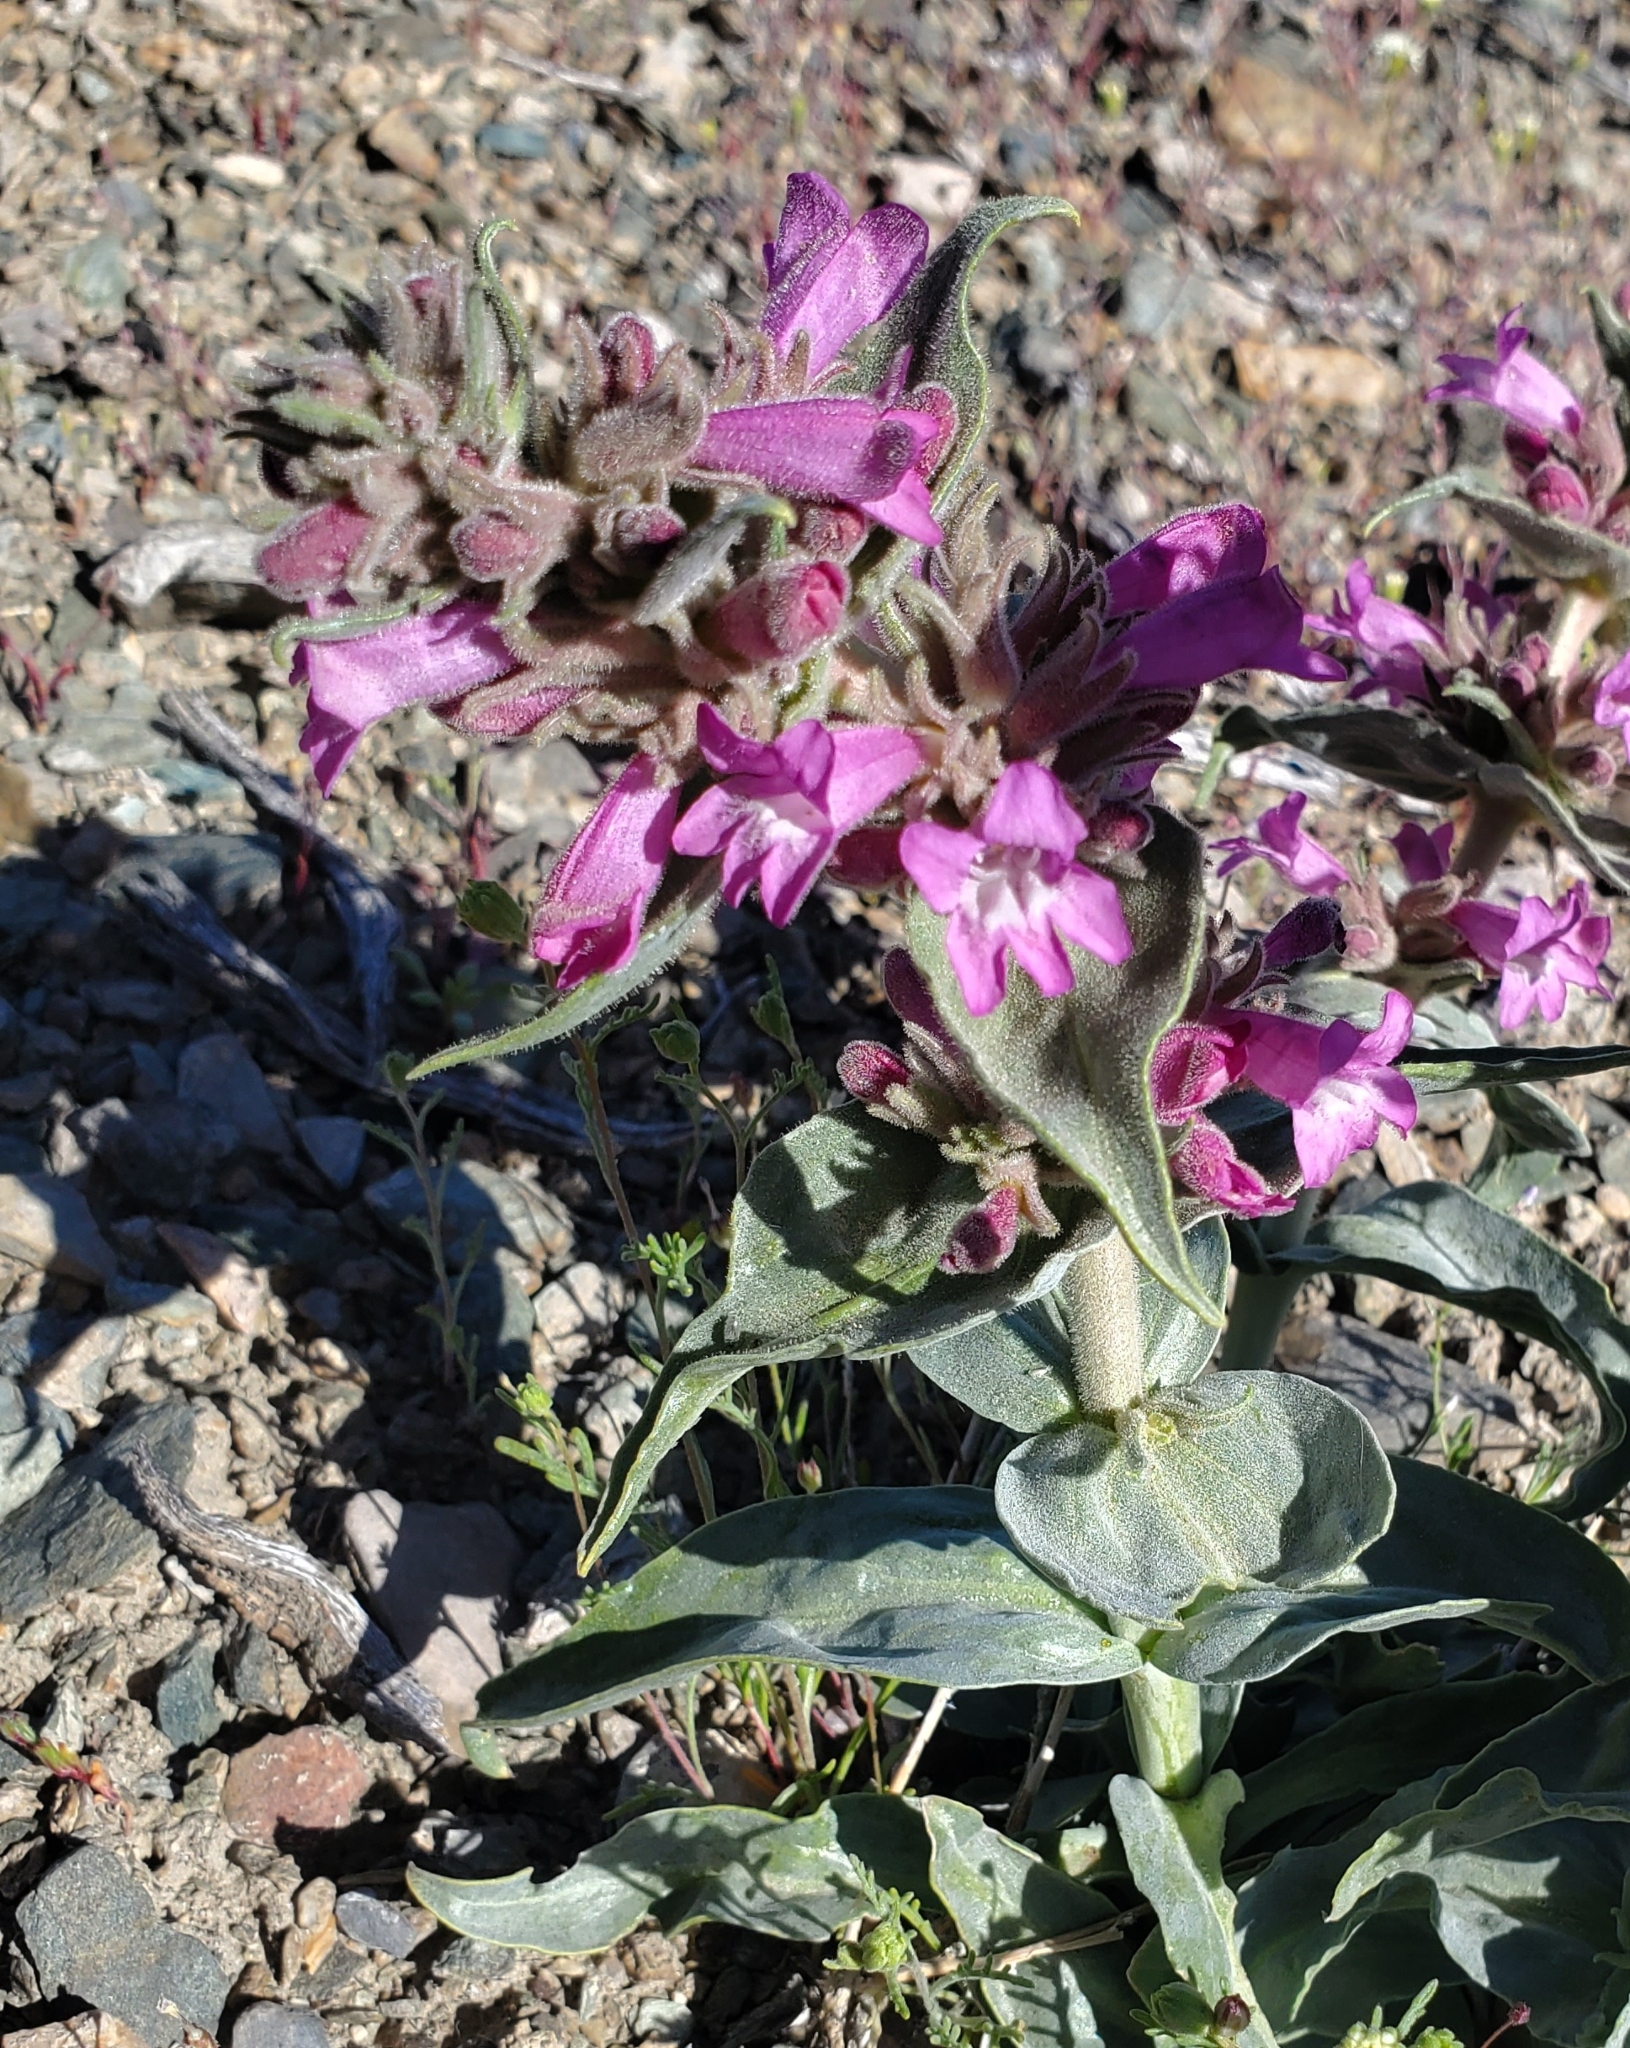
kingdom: Plantae
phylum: Tracheophyta
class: Magnoliopsida
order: Lamiales
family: Plantaginaceae
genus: Penstemon
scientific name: Penstemon monoensis
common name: Mono penstemon
